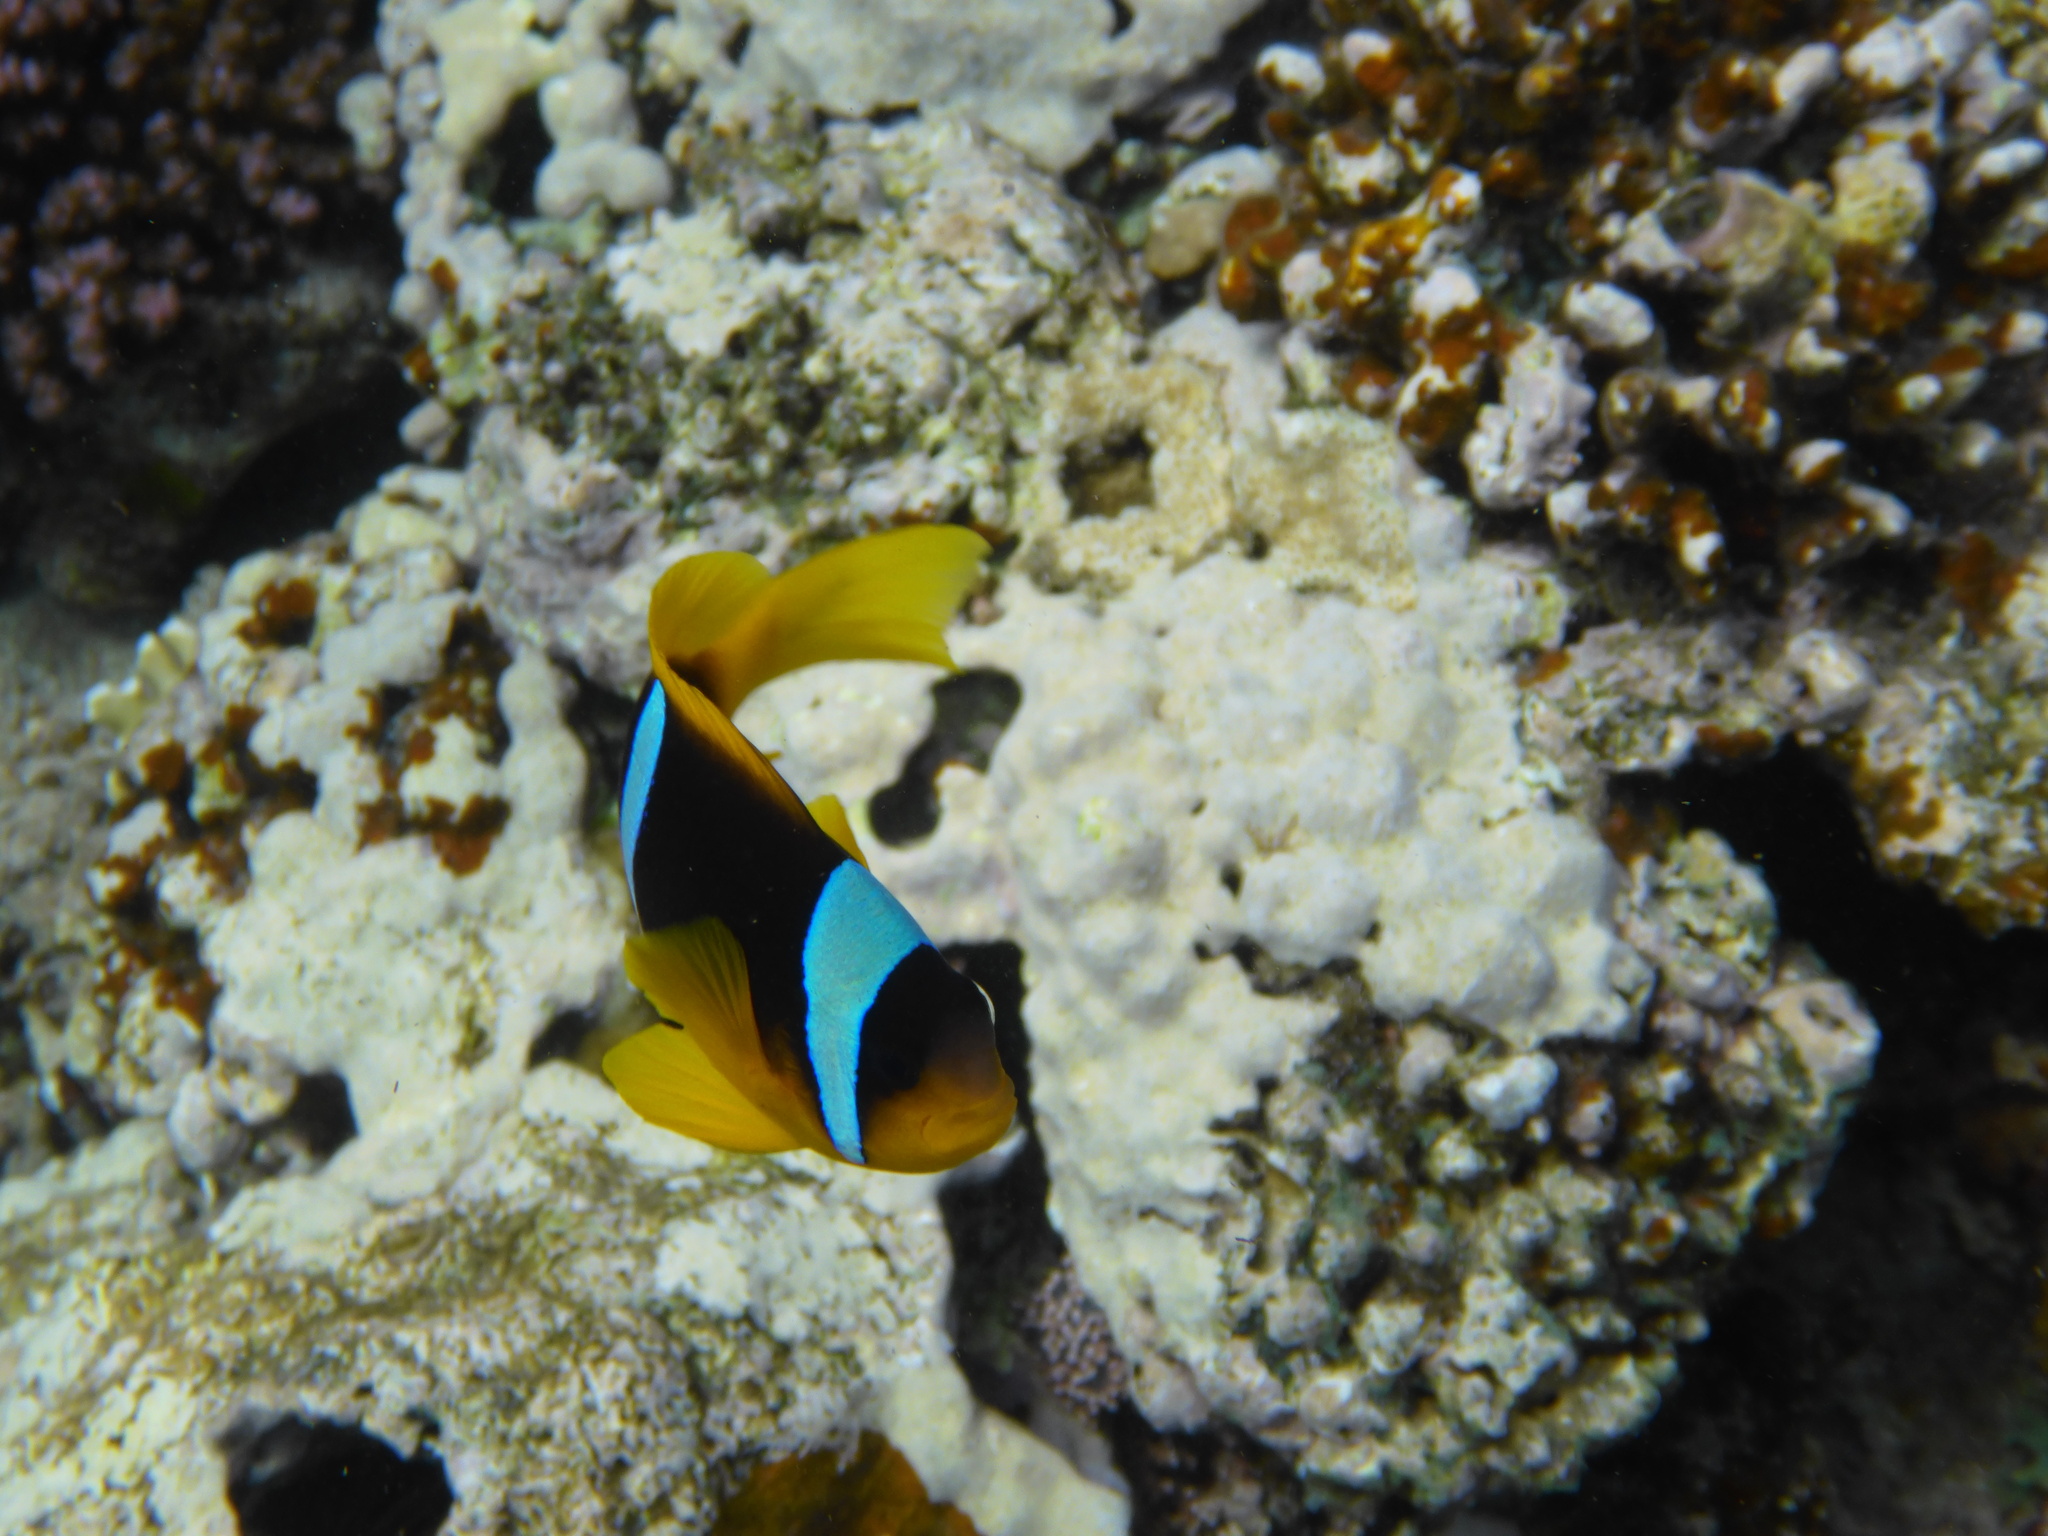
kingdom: Animalia
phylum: Chordata
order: Perciformes
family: Pomacentridae
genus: Amphiprion
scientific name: Amphiprion bicinctus
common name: Two-banded anemonefish
